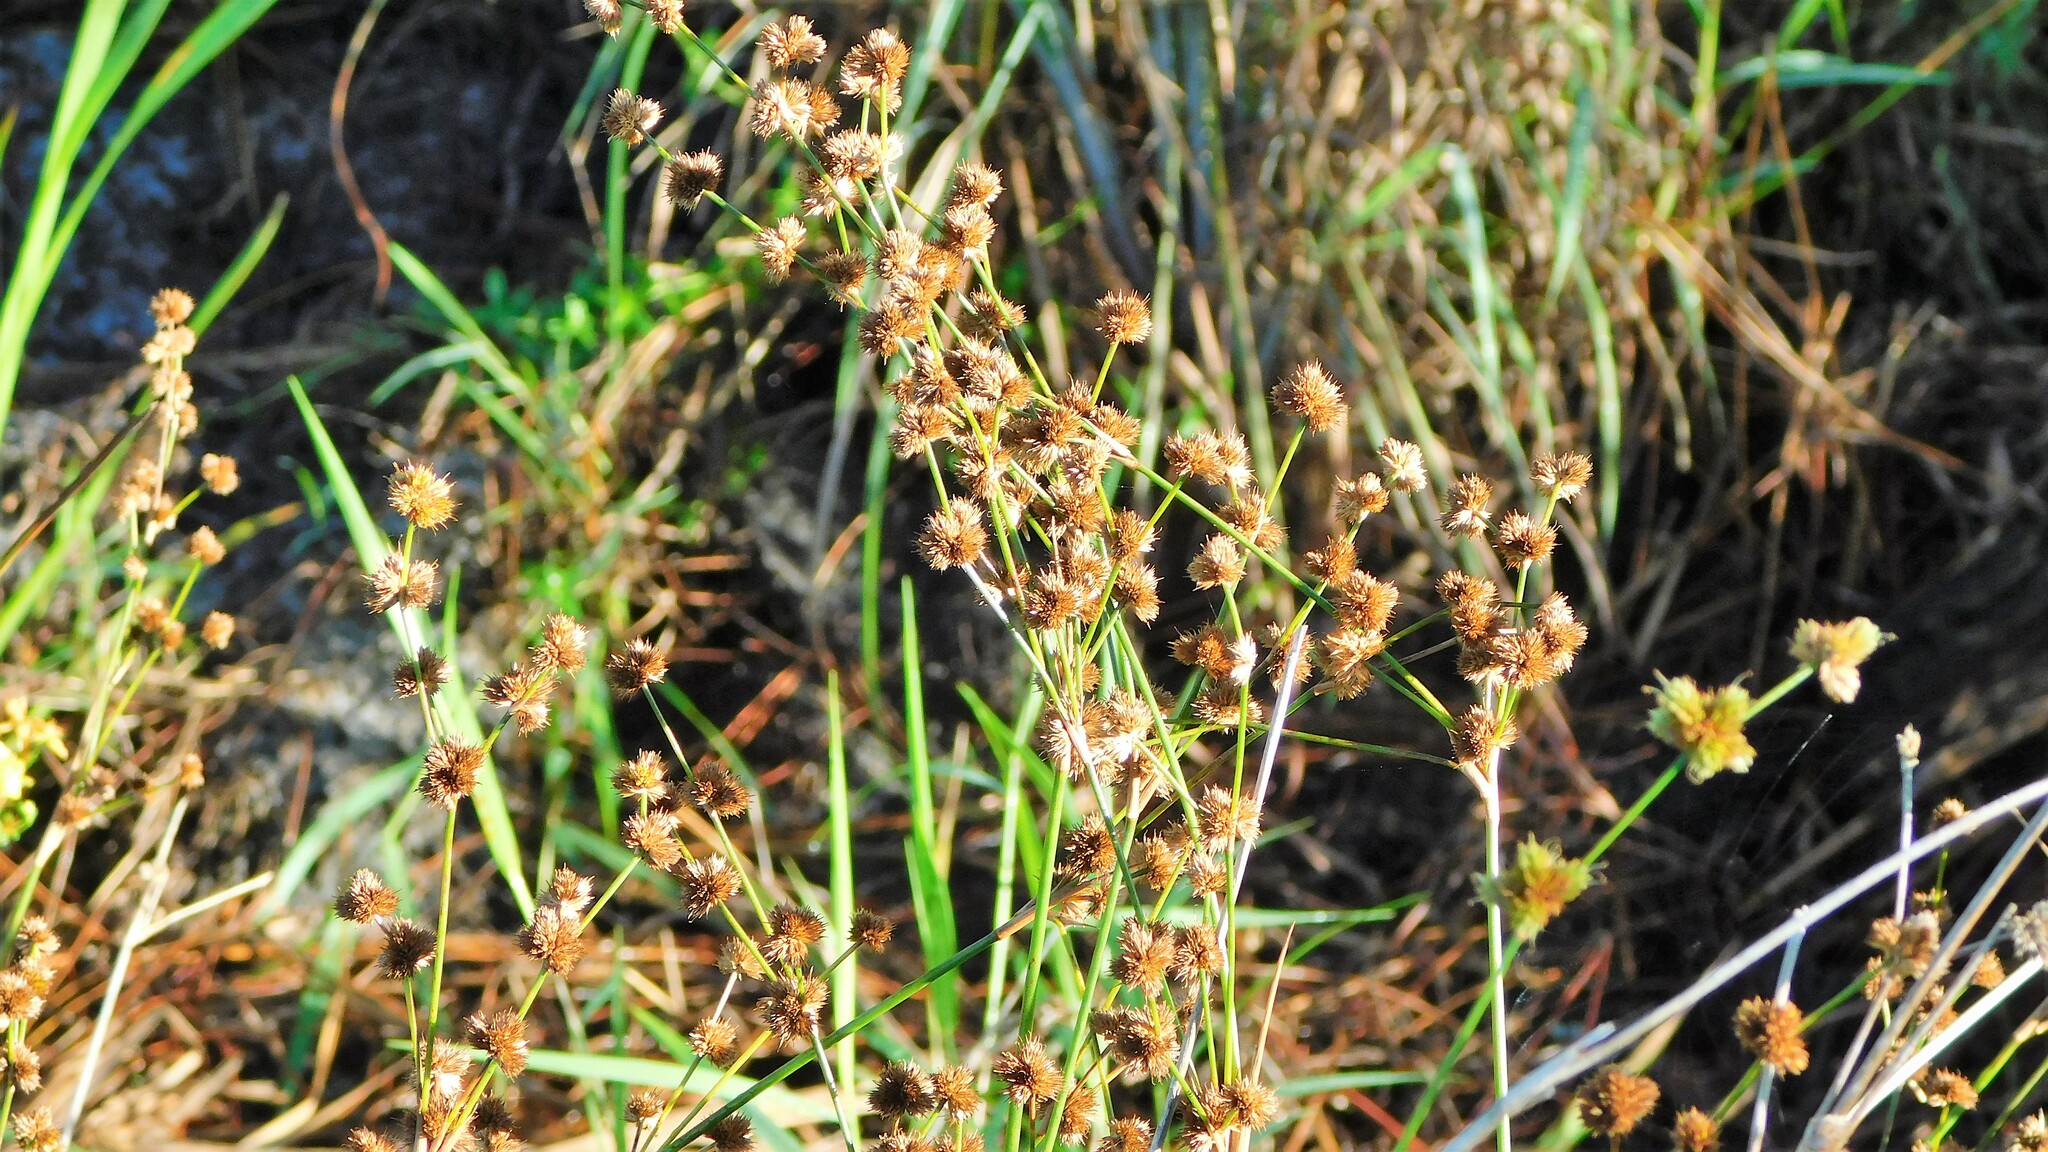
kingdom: Plantae
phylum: Tracheophyta
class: Liliopsida
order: Poales
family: Juncaceae
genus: Juncus
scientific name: Juncus scirpoides
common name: Needlepod rush
